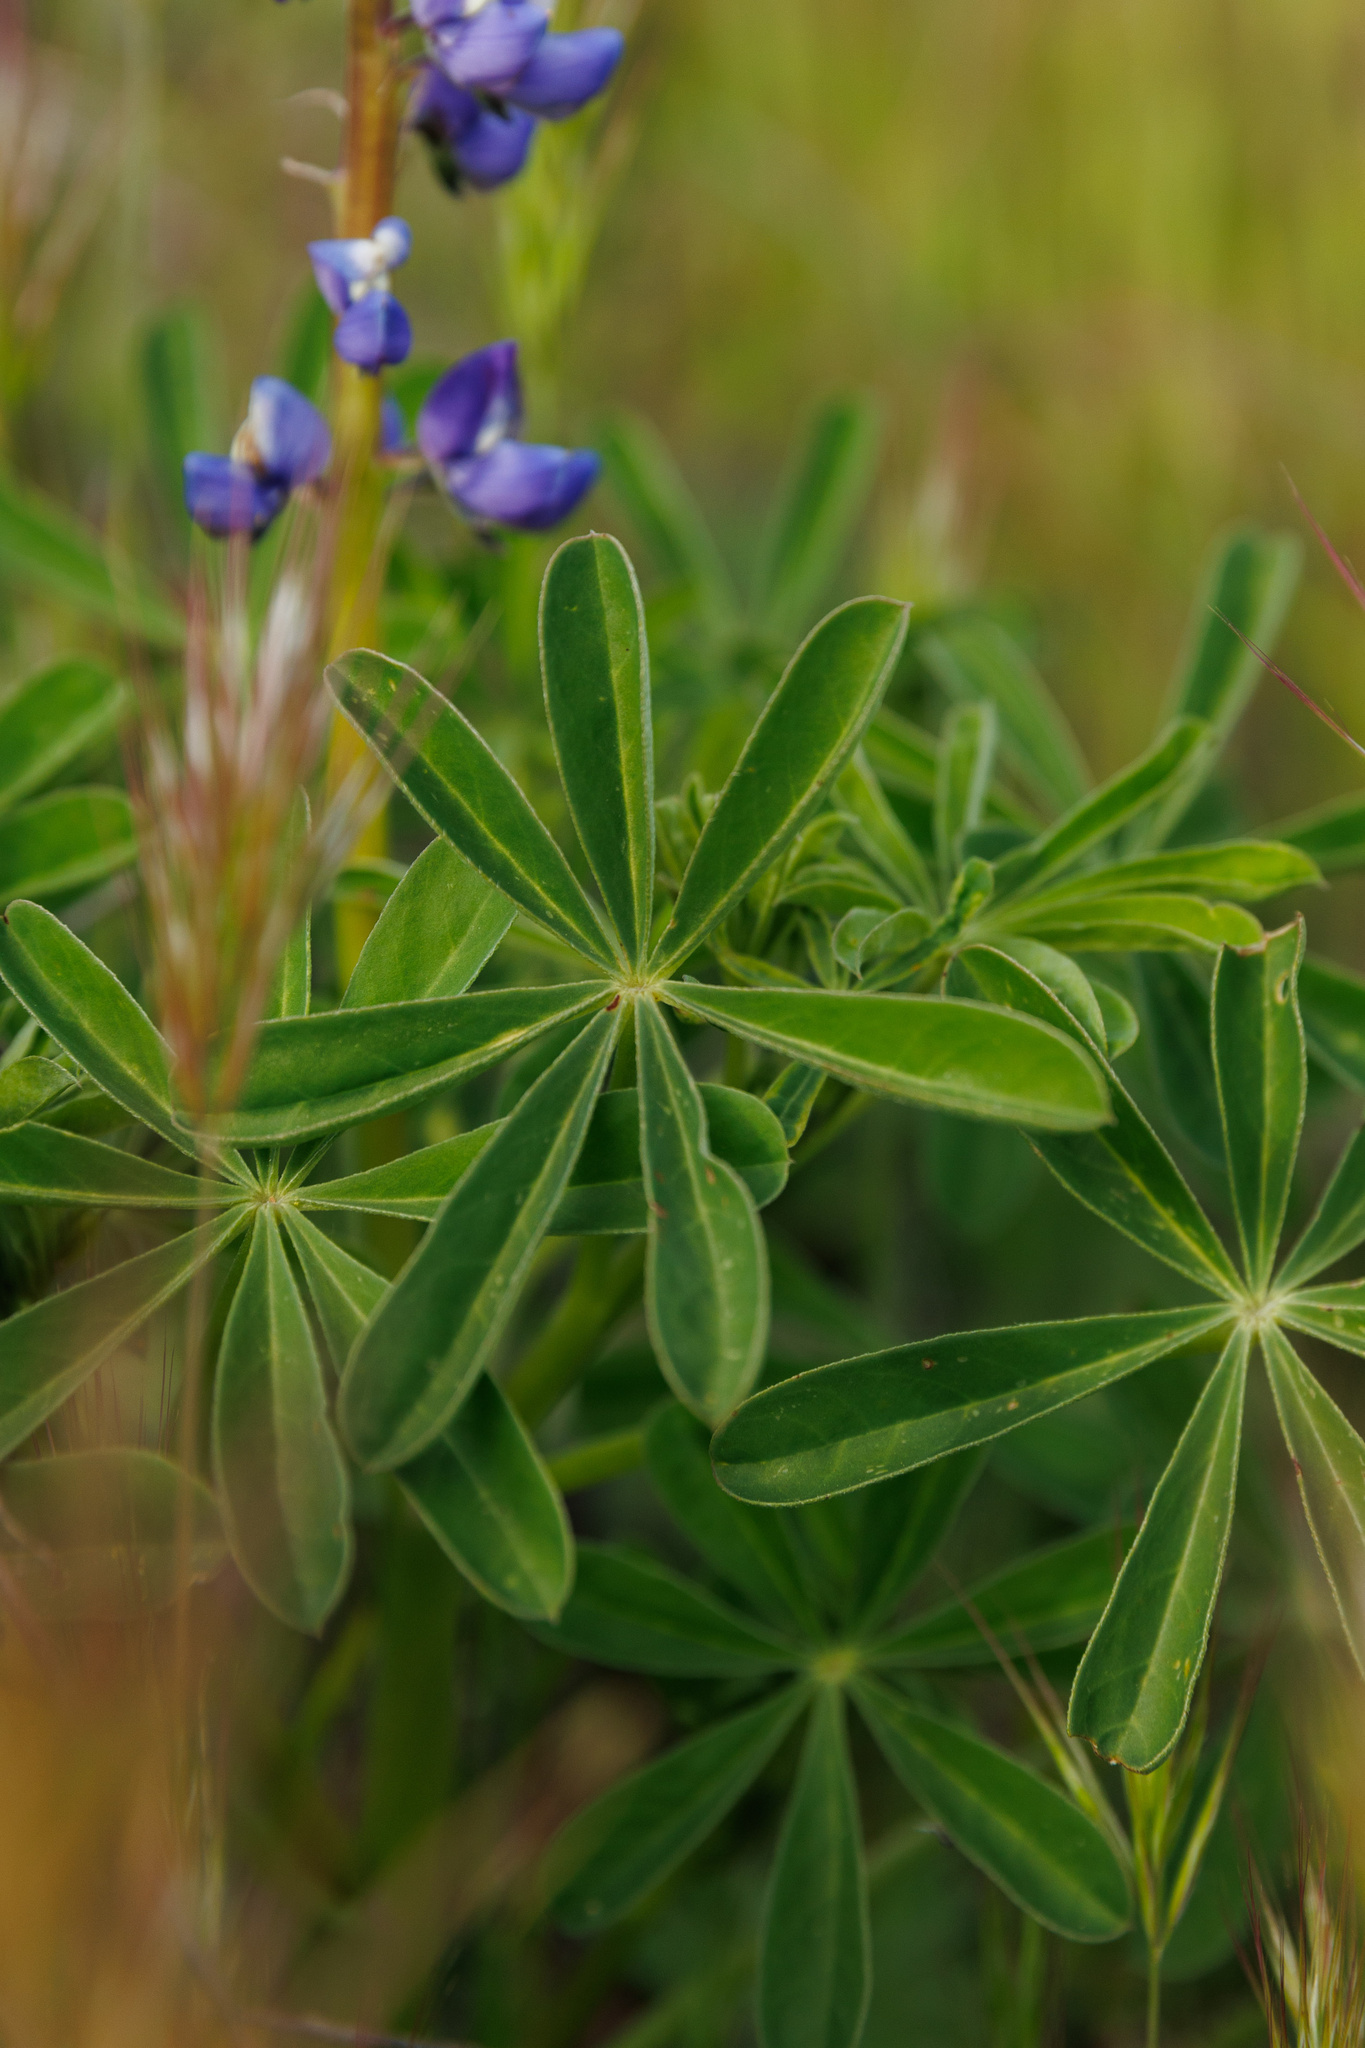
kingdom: Plantae
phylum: Tracheophyta
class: Magnoliopsida
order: Fabales
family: Fabaceae
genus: Lupinus
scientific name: Lupinus succulentus
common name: Arroyo lupine
